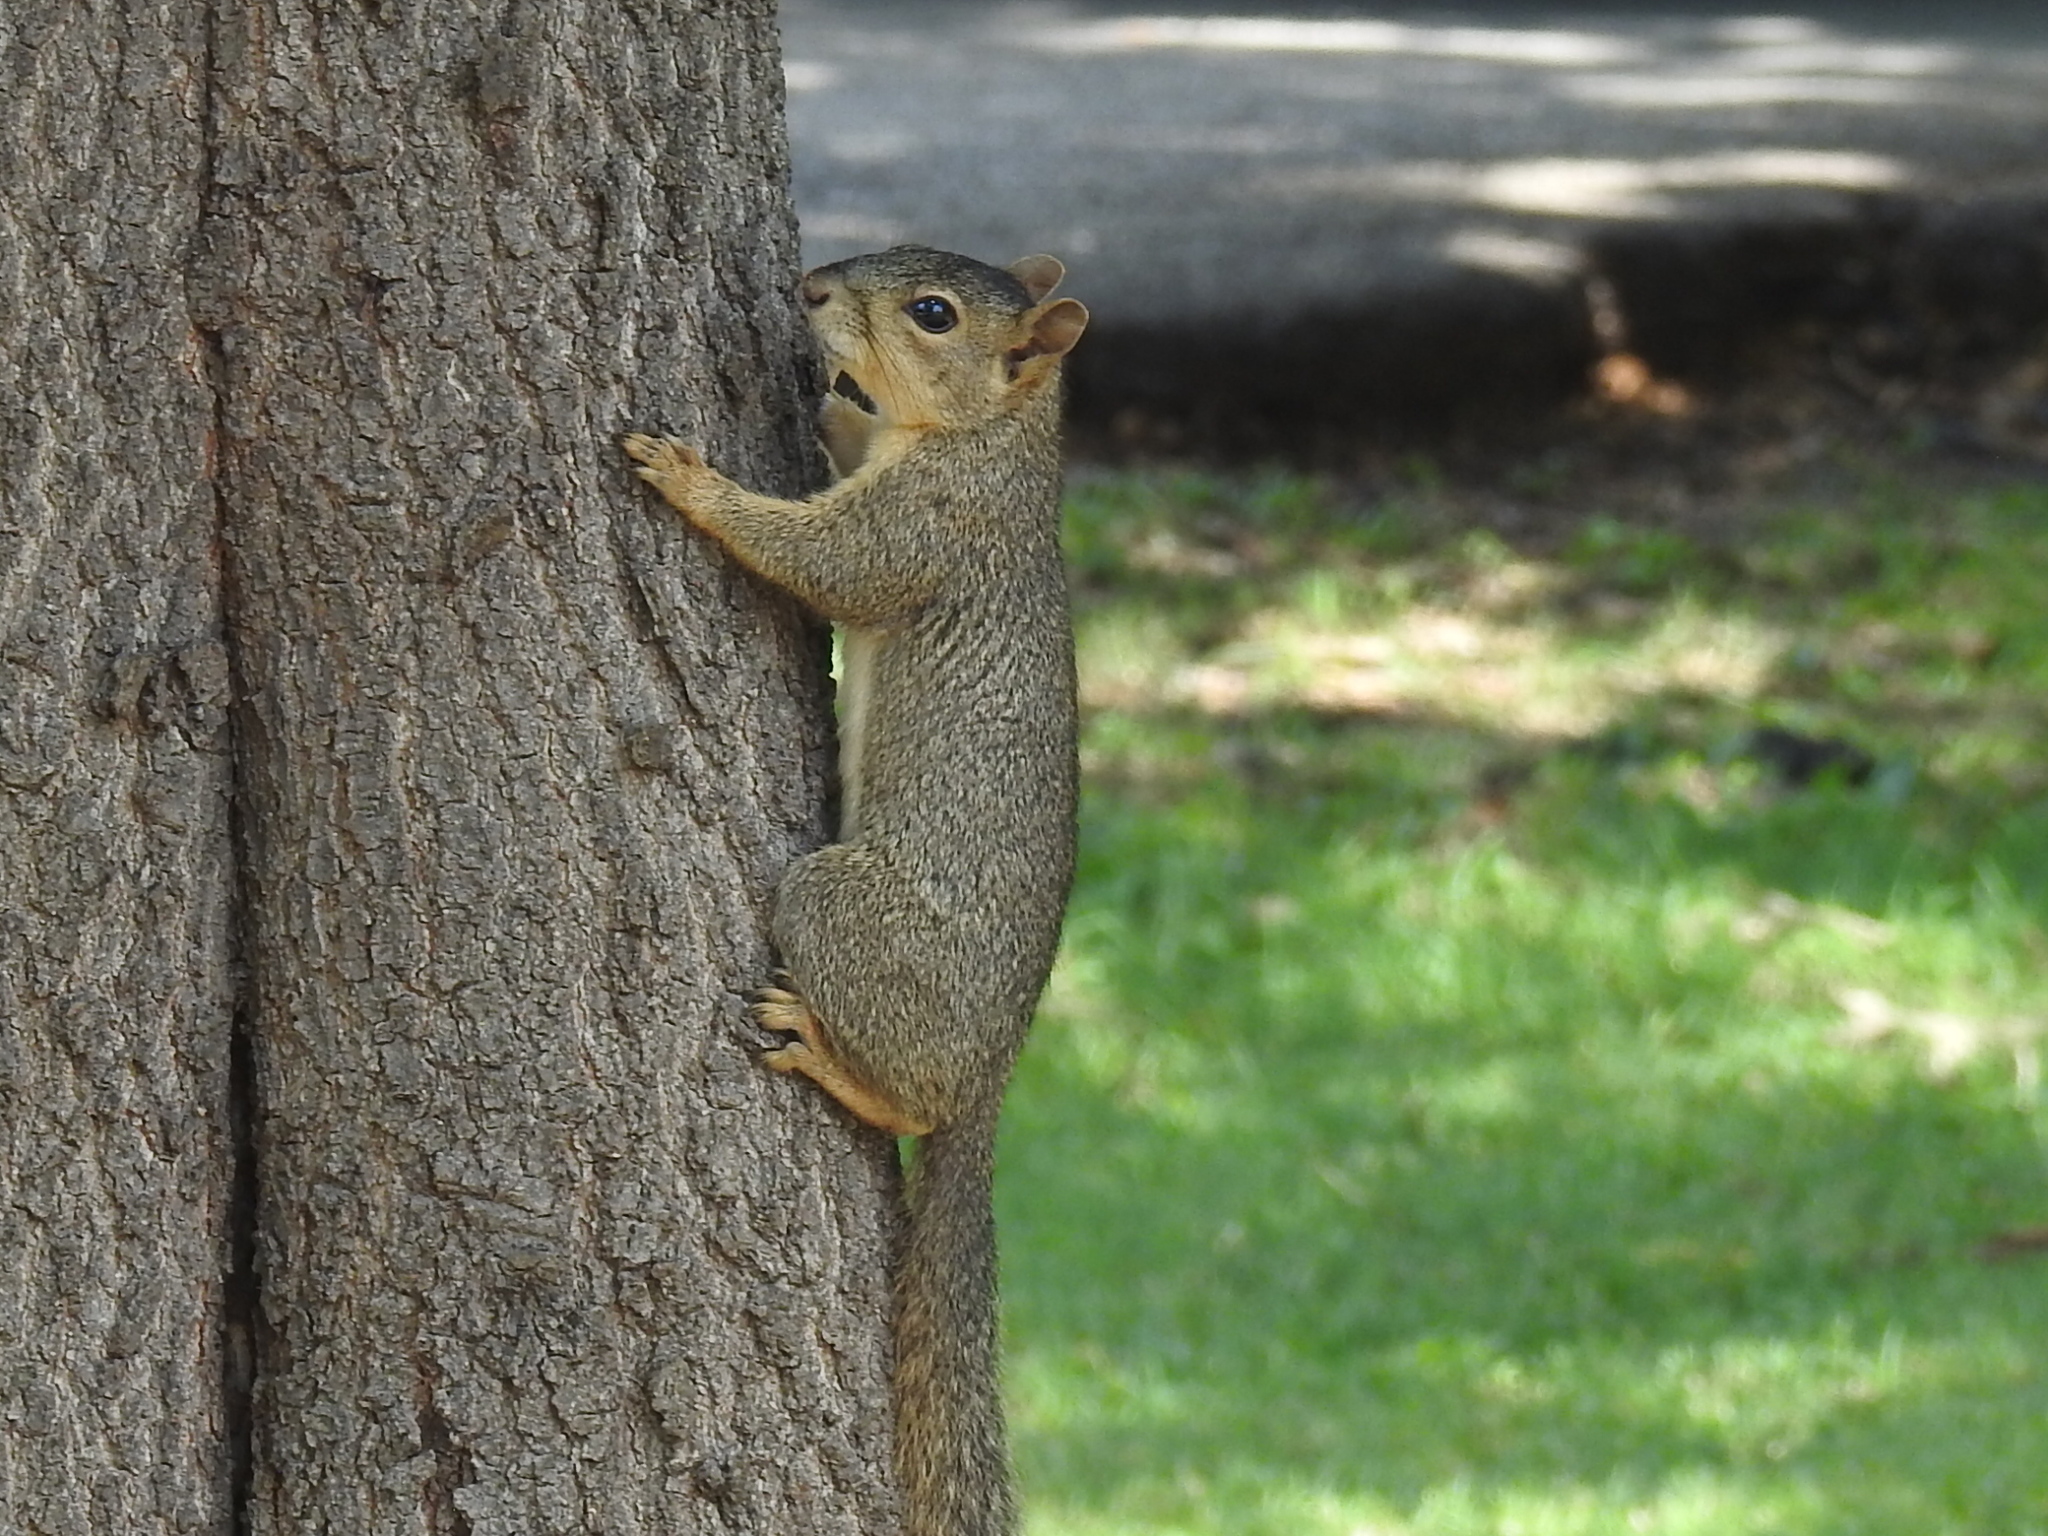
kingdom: Animalia
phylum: Chordata
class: Mammalia
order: Rodentia
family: Sciuridae
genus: Sciurus
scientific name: Sciurus niger
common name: Fox squirrel
